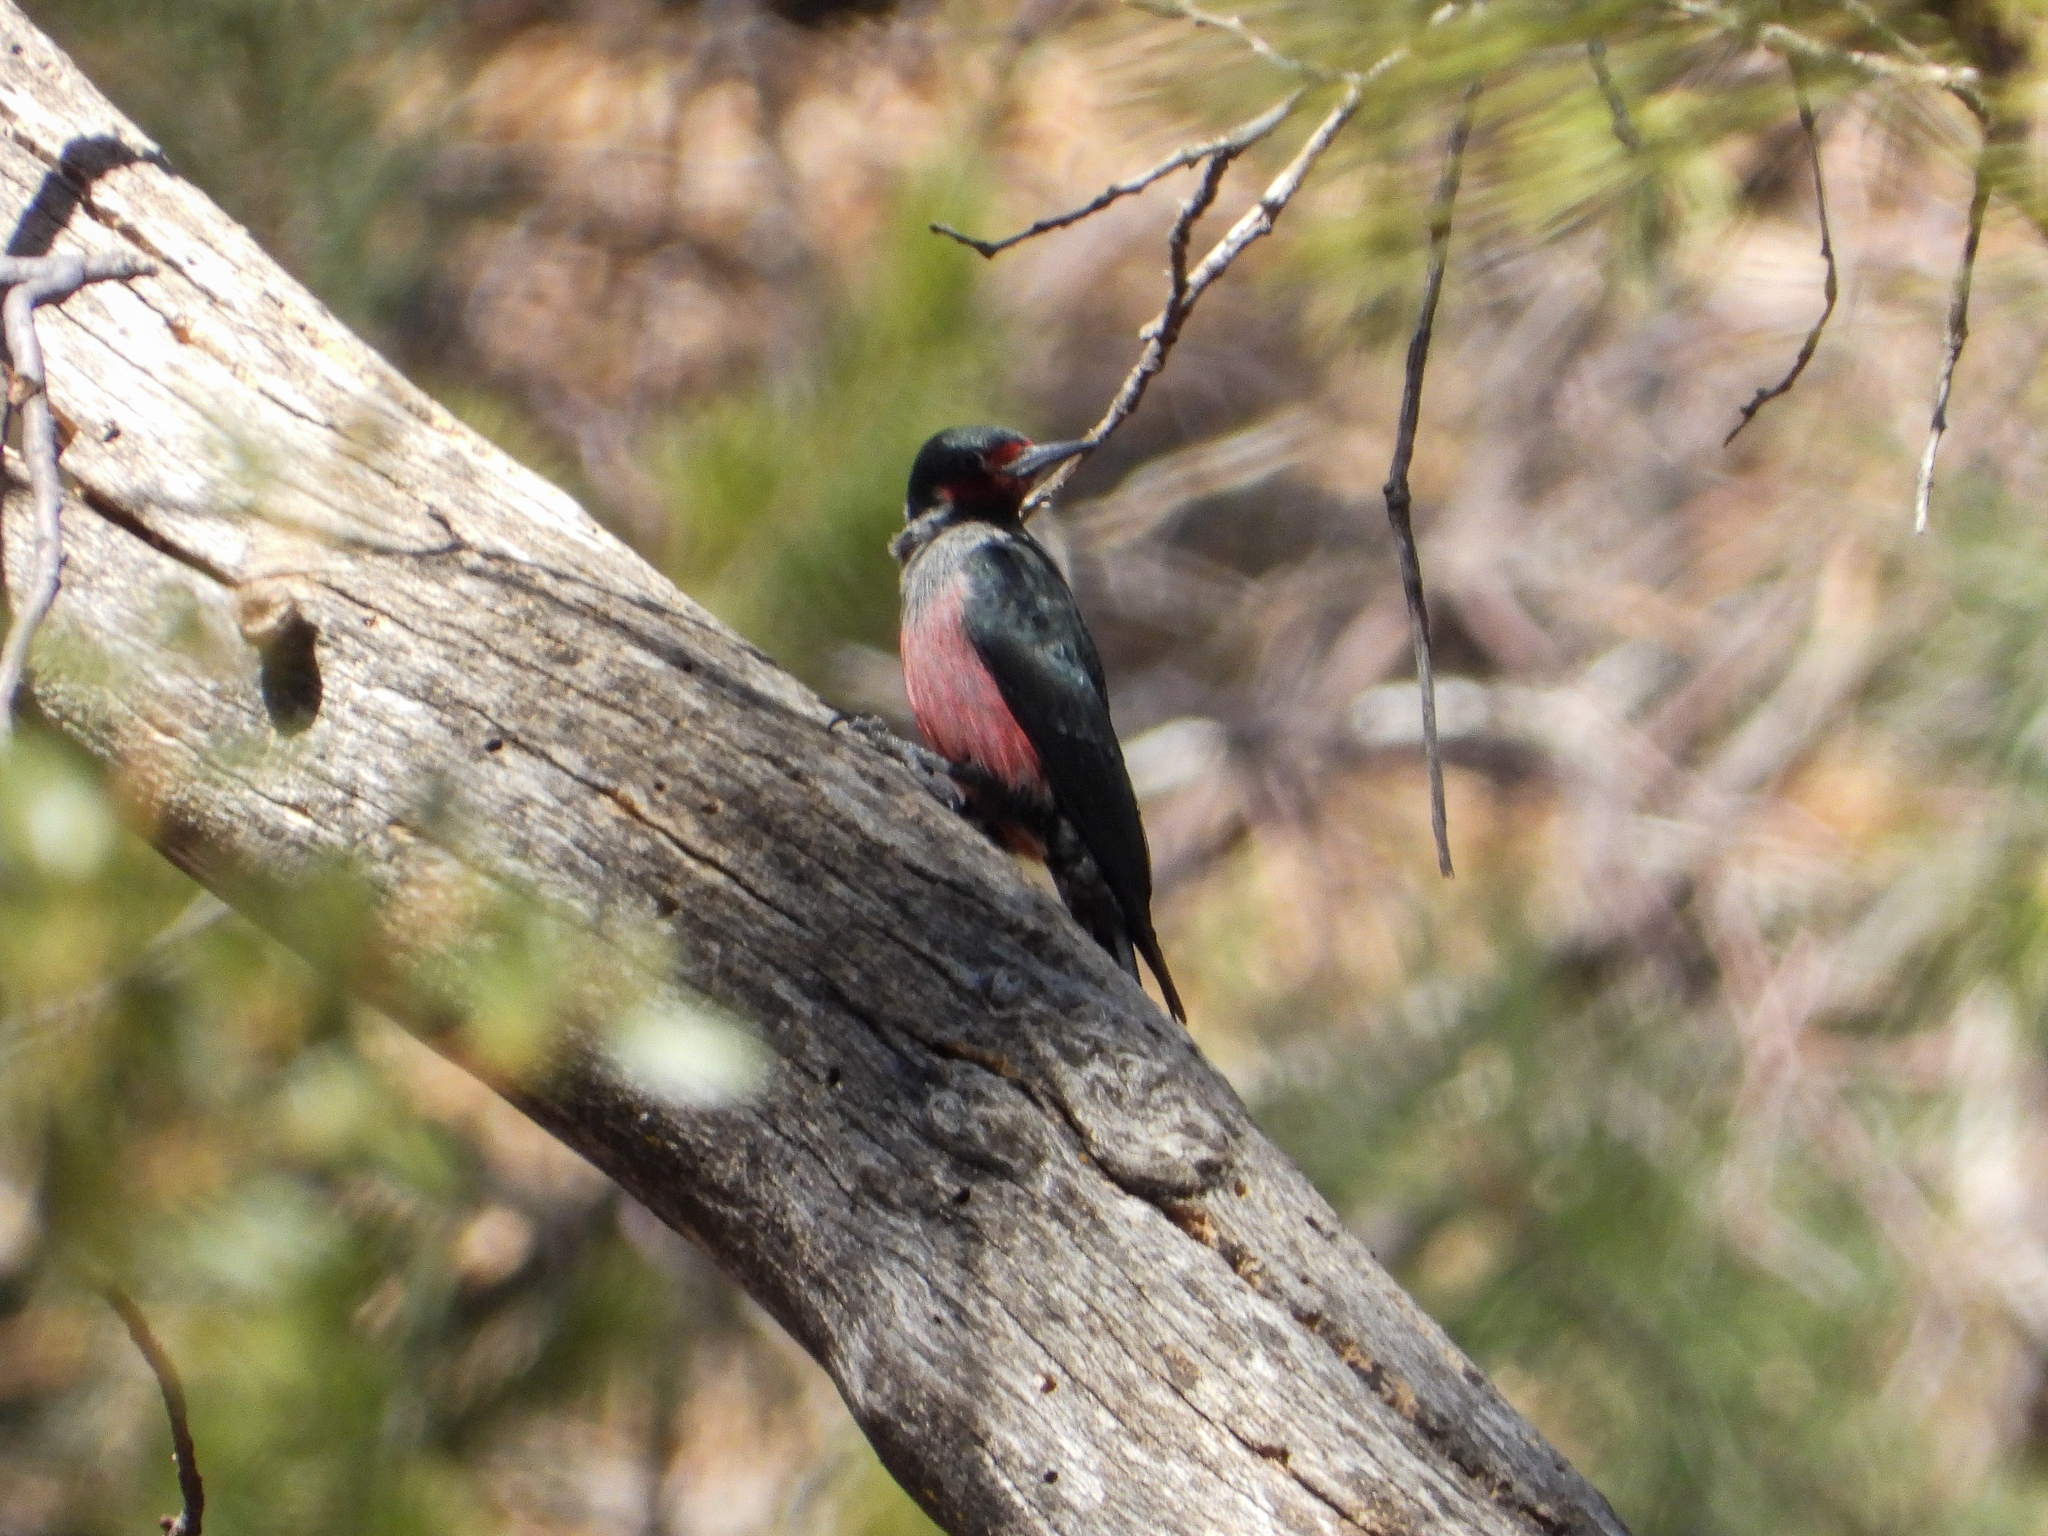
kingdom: Animalia
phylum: Chordata
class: Aves
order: Piciformes
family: Picidae
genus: Melanerpes
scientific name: Melanerpes lewis
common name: Lewis's woodpecker
